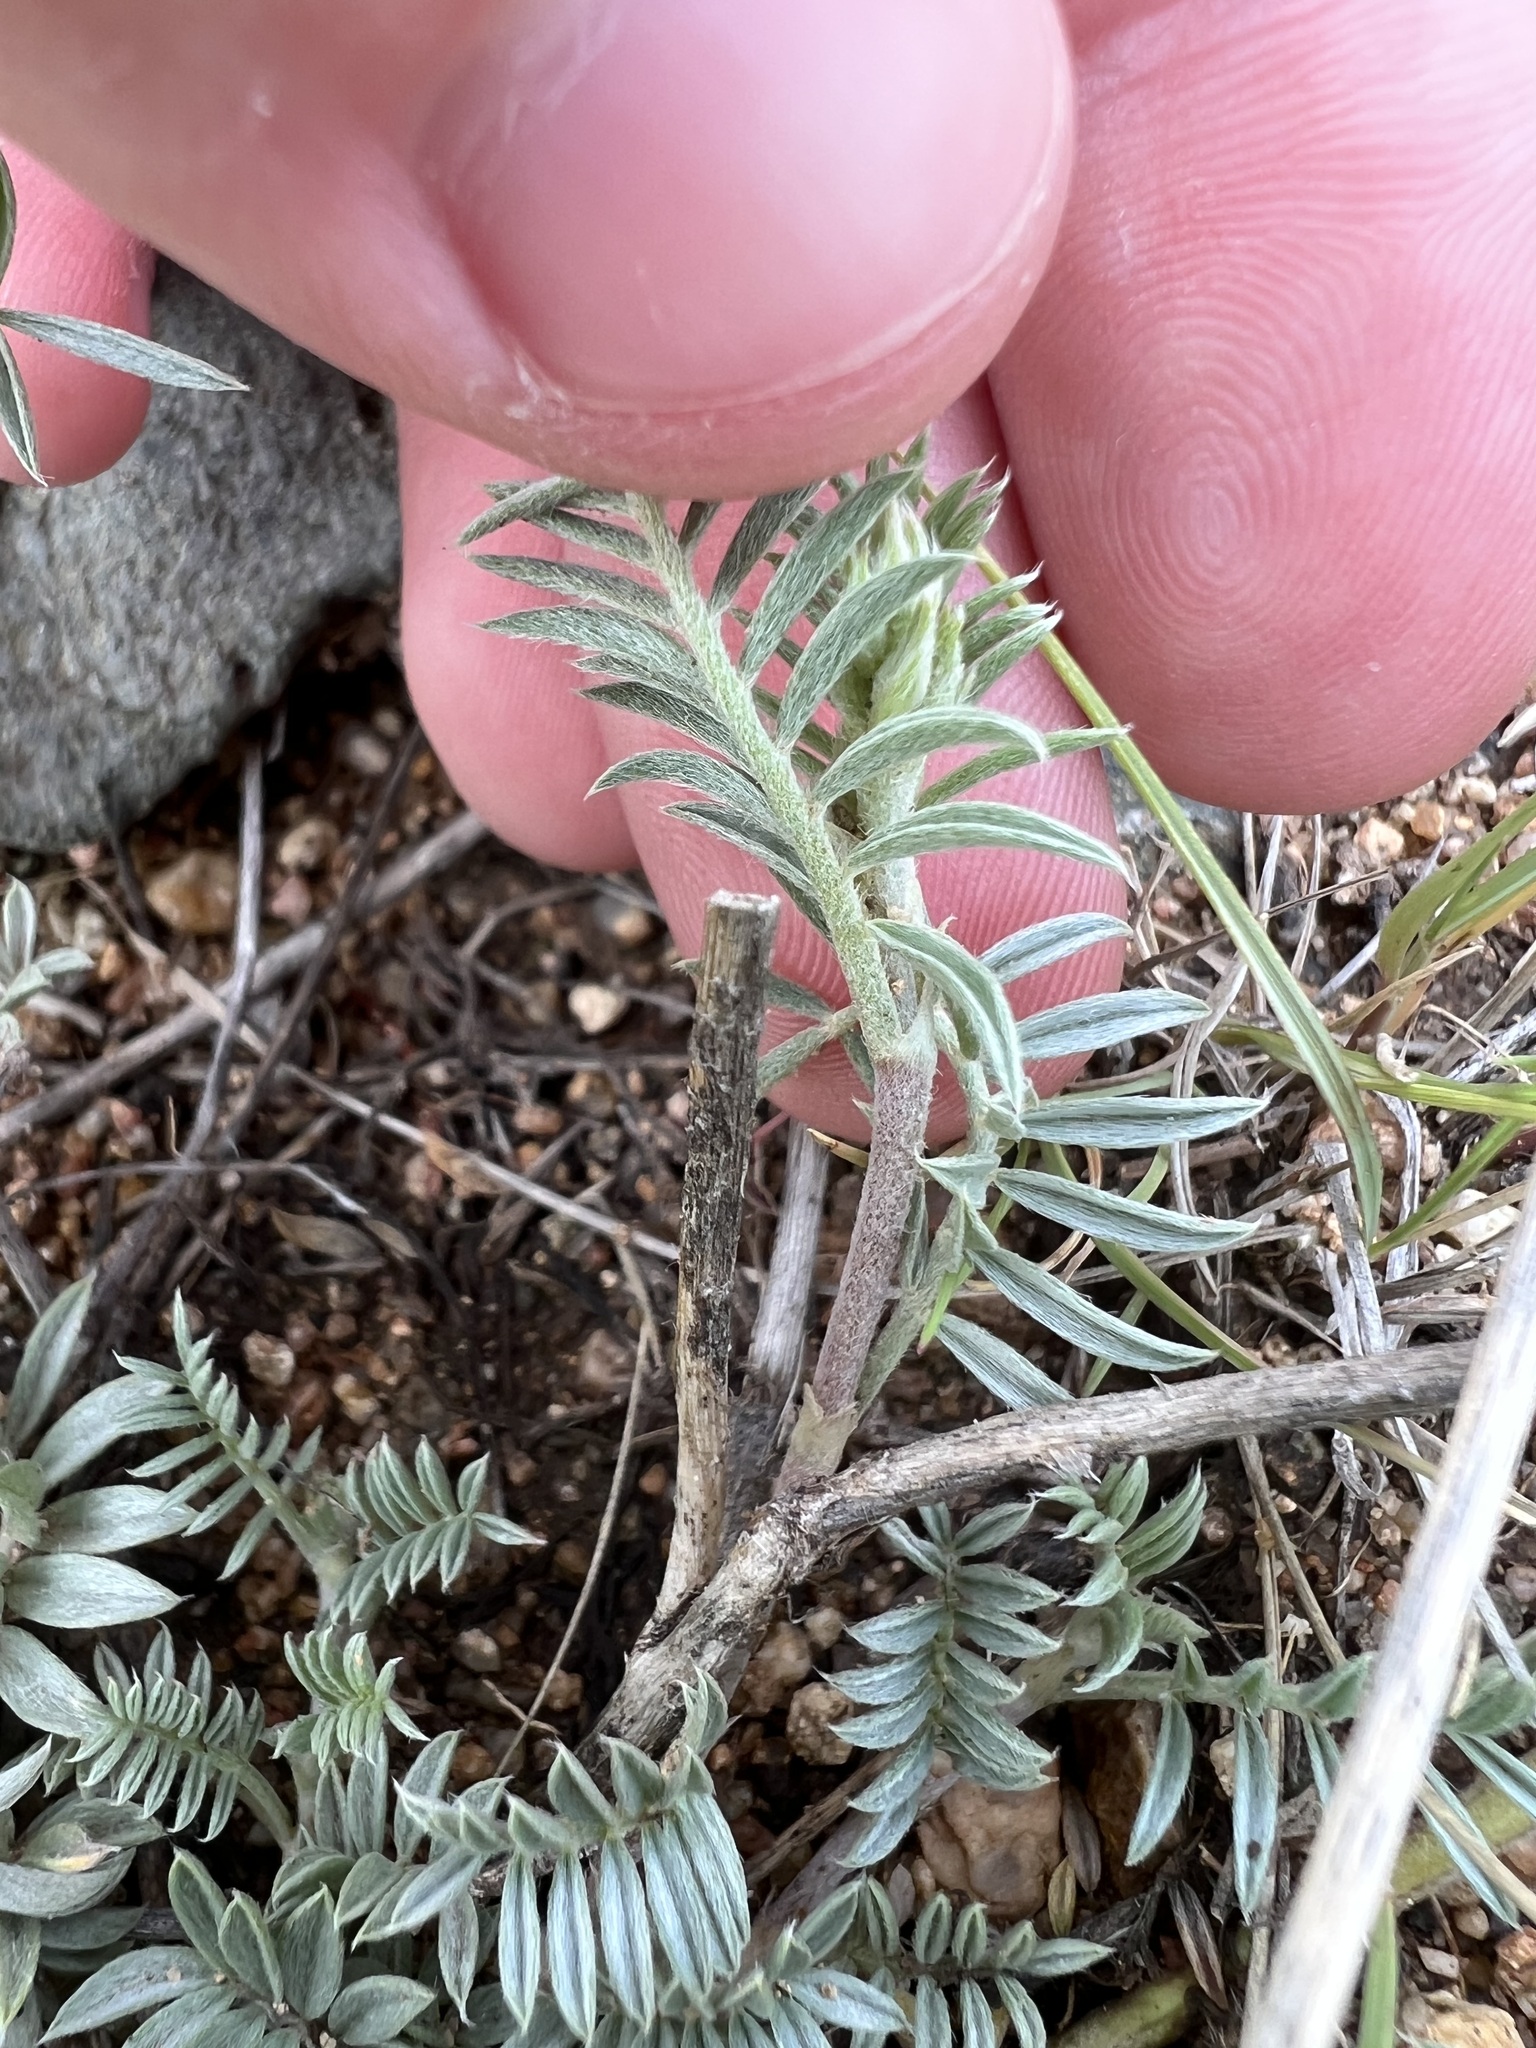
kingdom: Plantae
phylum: Tracheophyta
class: Magnoliopsida
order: Fabales
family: Fabaceae
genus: Astragalus
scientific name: Astragalus humistratus
